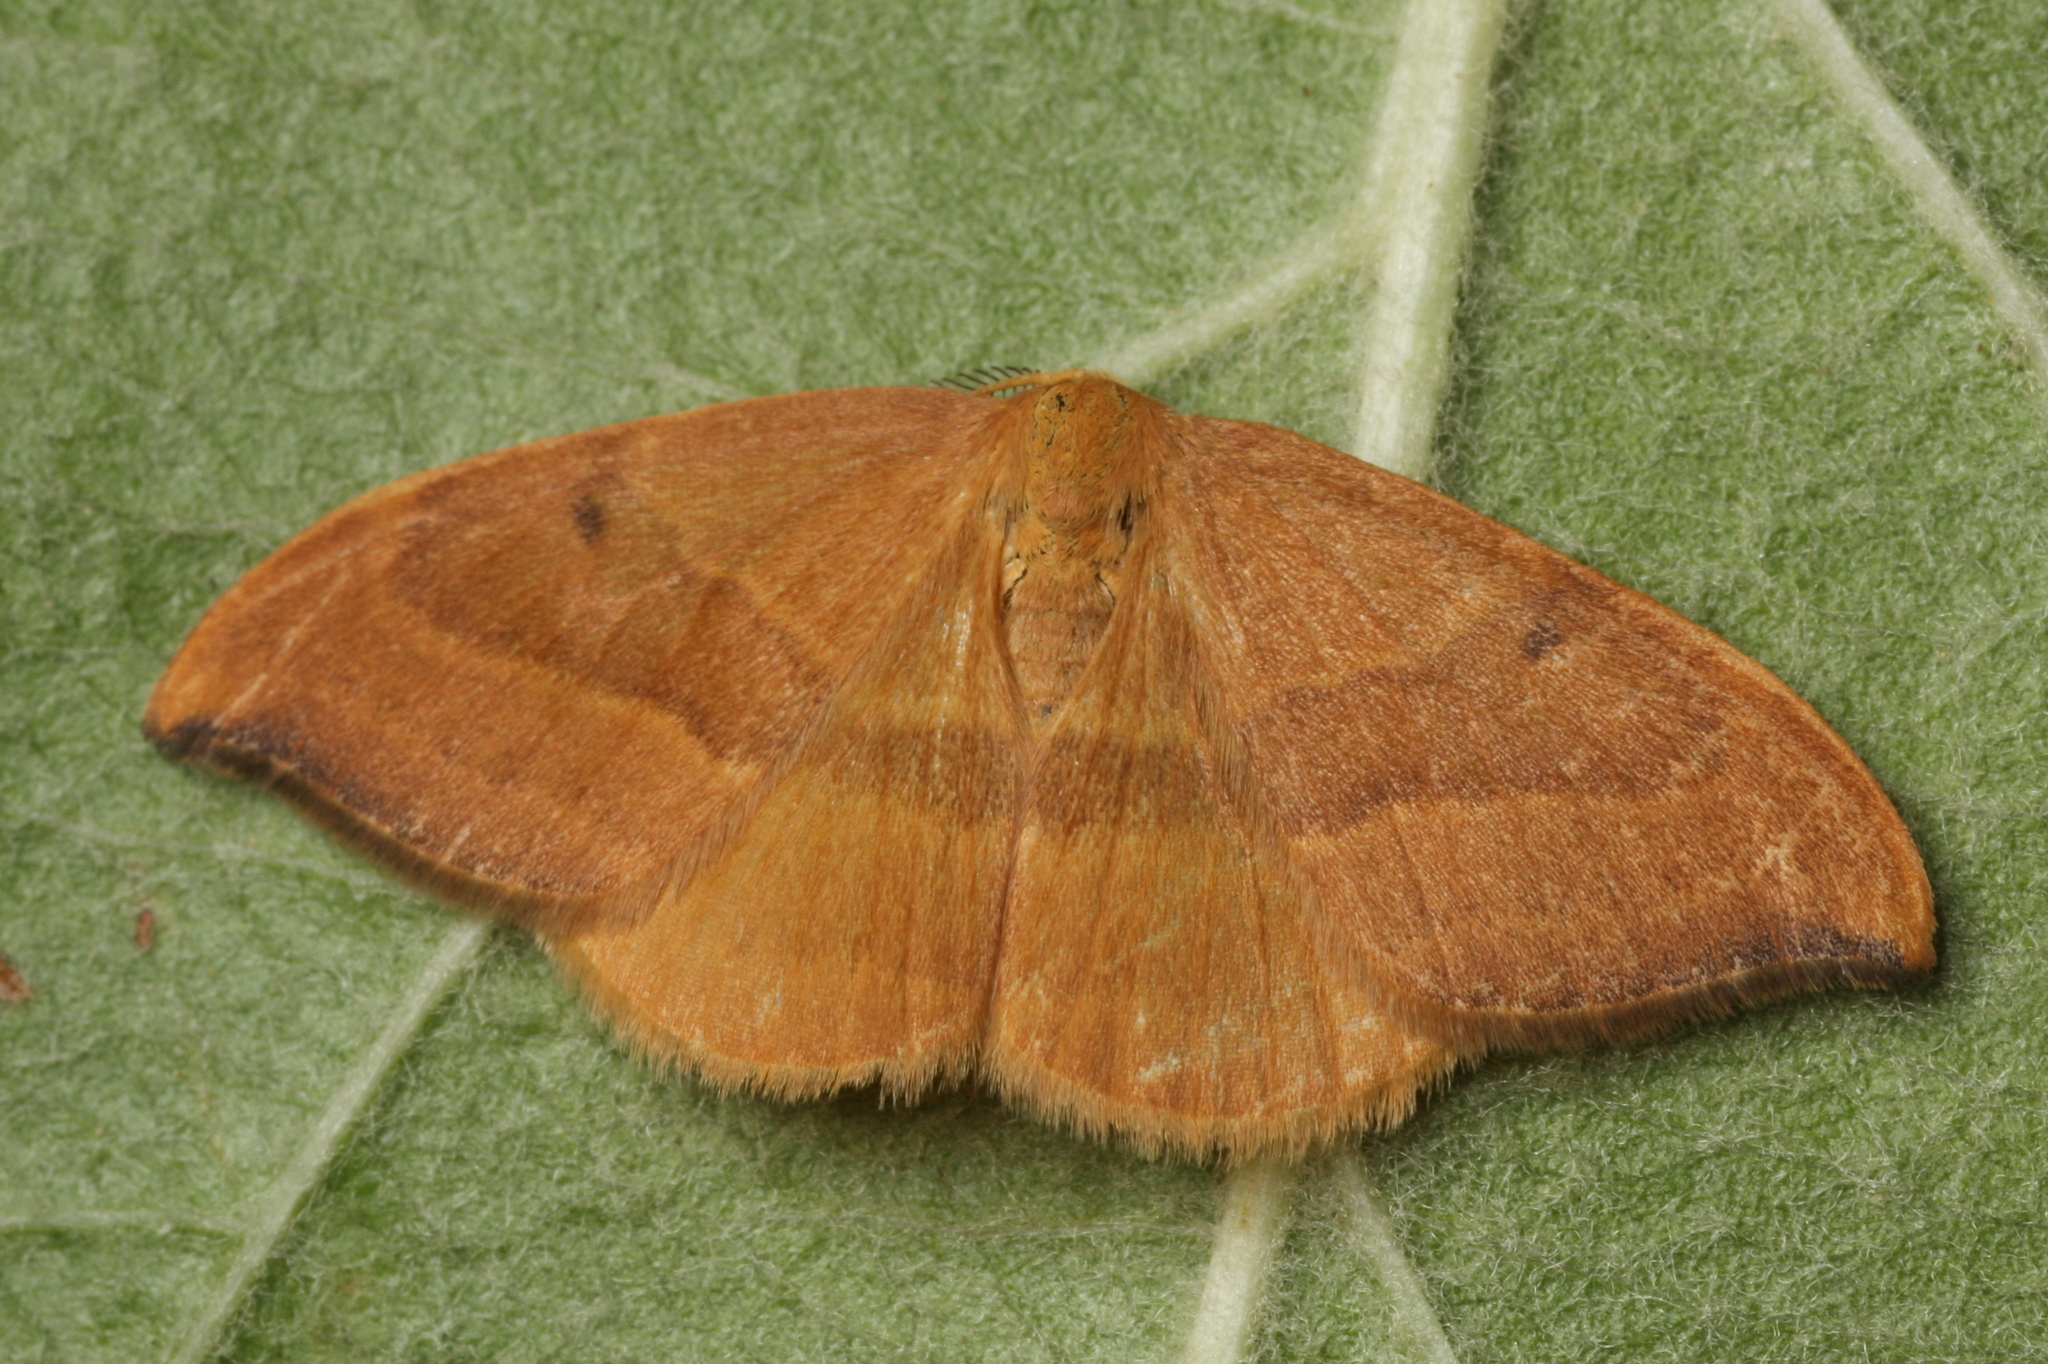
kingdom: Animalia
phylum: Arthropoda
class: Insecta
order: Lepidoptera
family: Drepanidae
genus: Watsonalla
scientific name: Watsonalla cultraria
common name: Barred hook-tip
